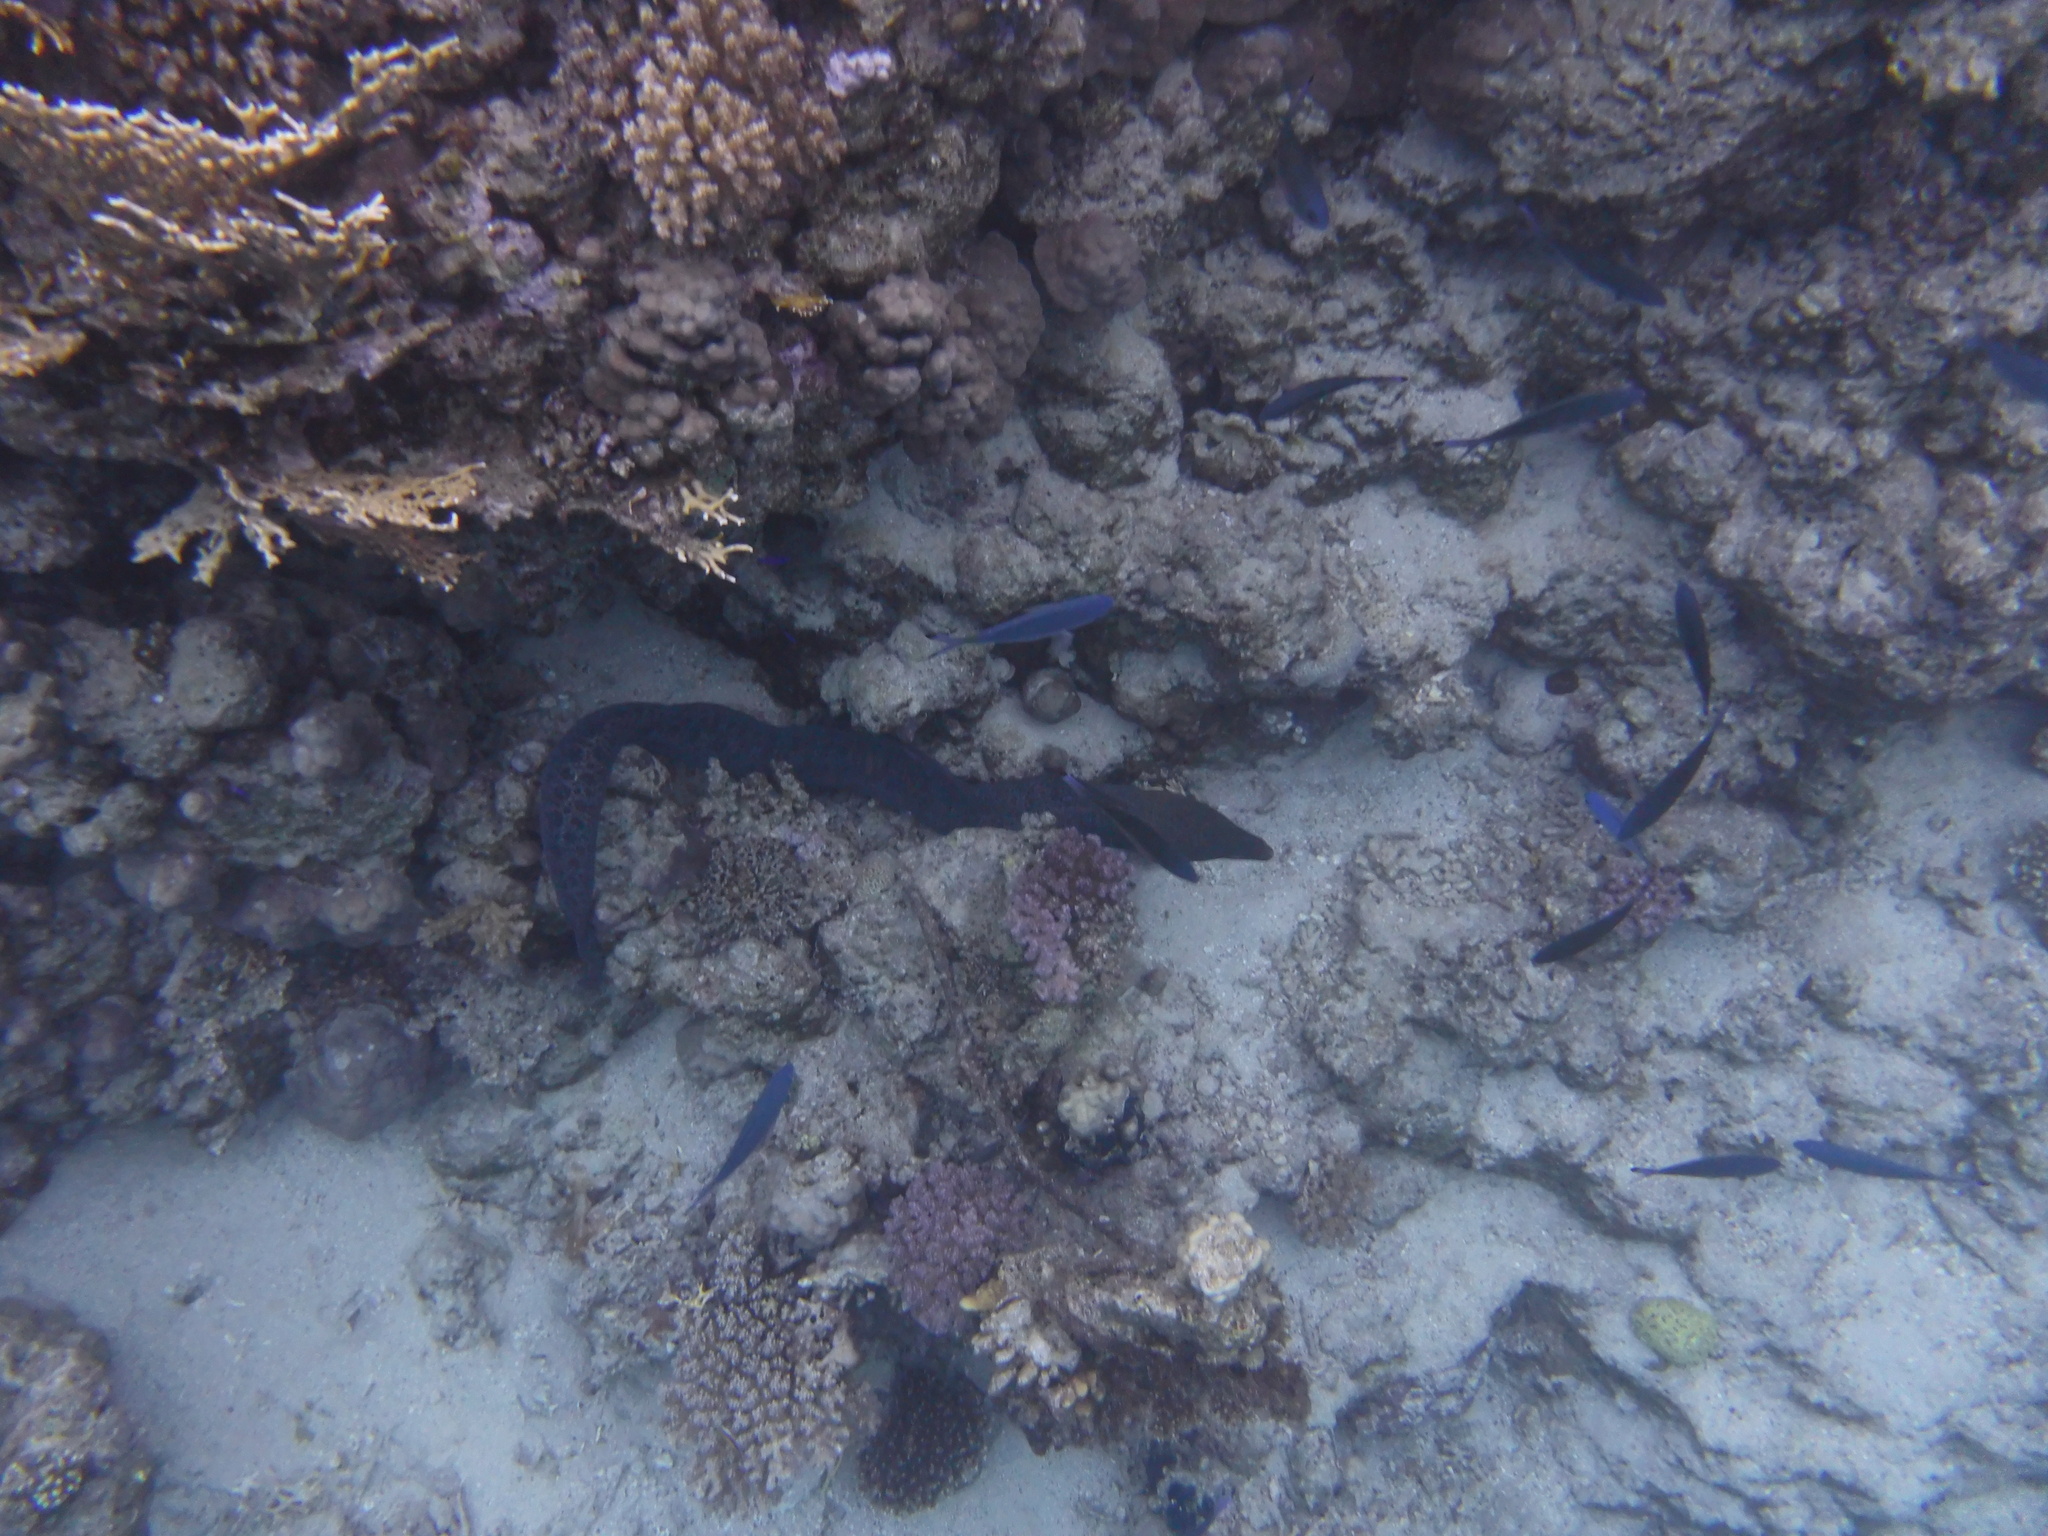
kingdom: Animalia
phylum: Chordata
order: Anguilliformes
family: Muraenidae
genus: Gymnothorax
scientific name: Gymnothorax javanicus
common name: Giant moray
